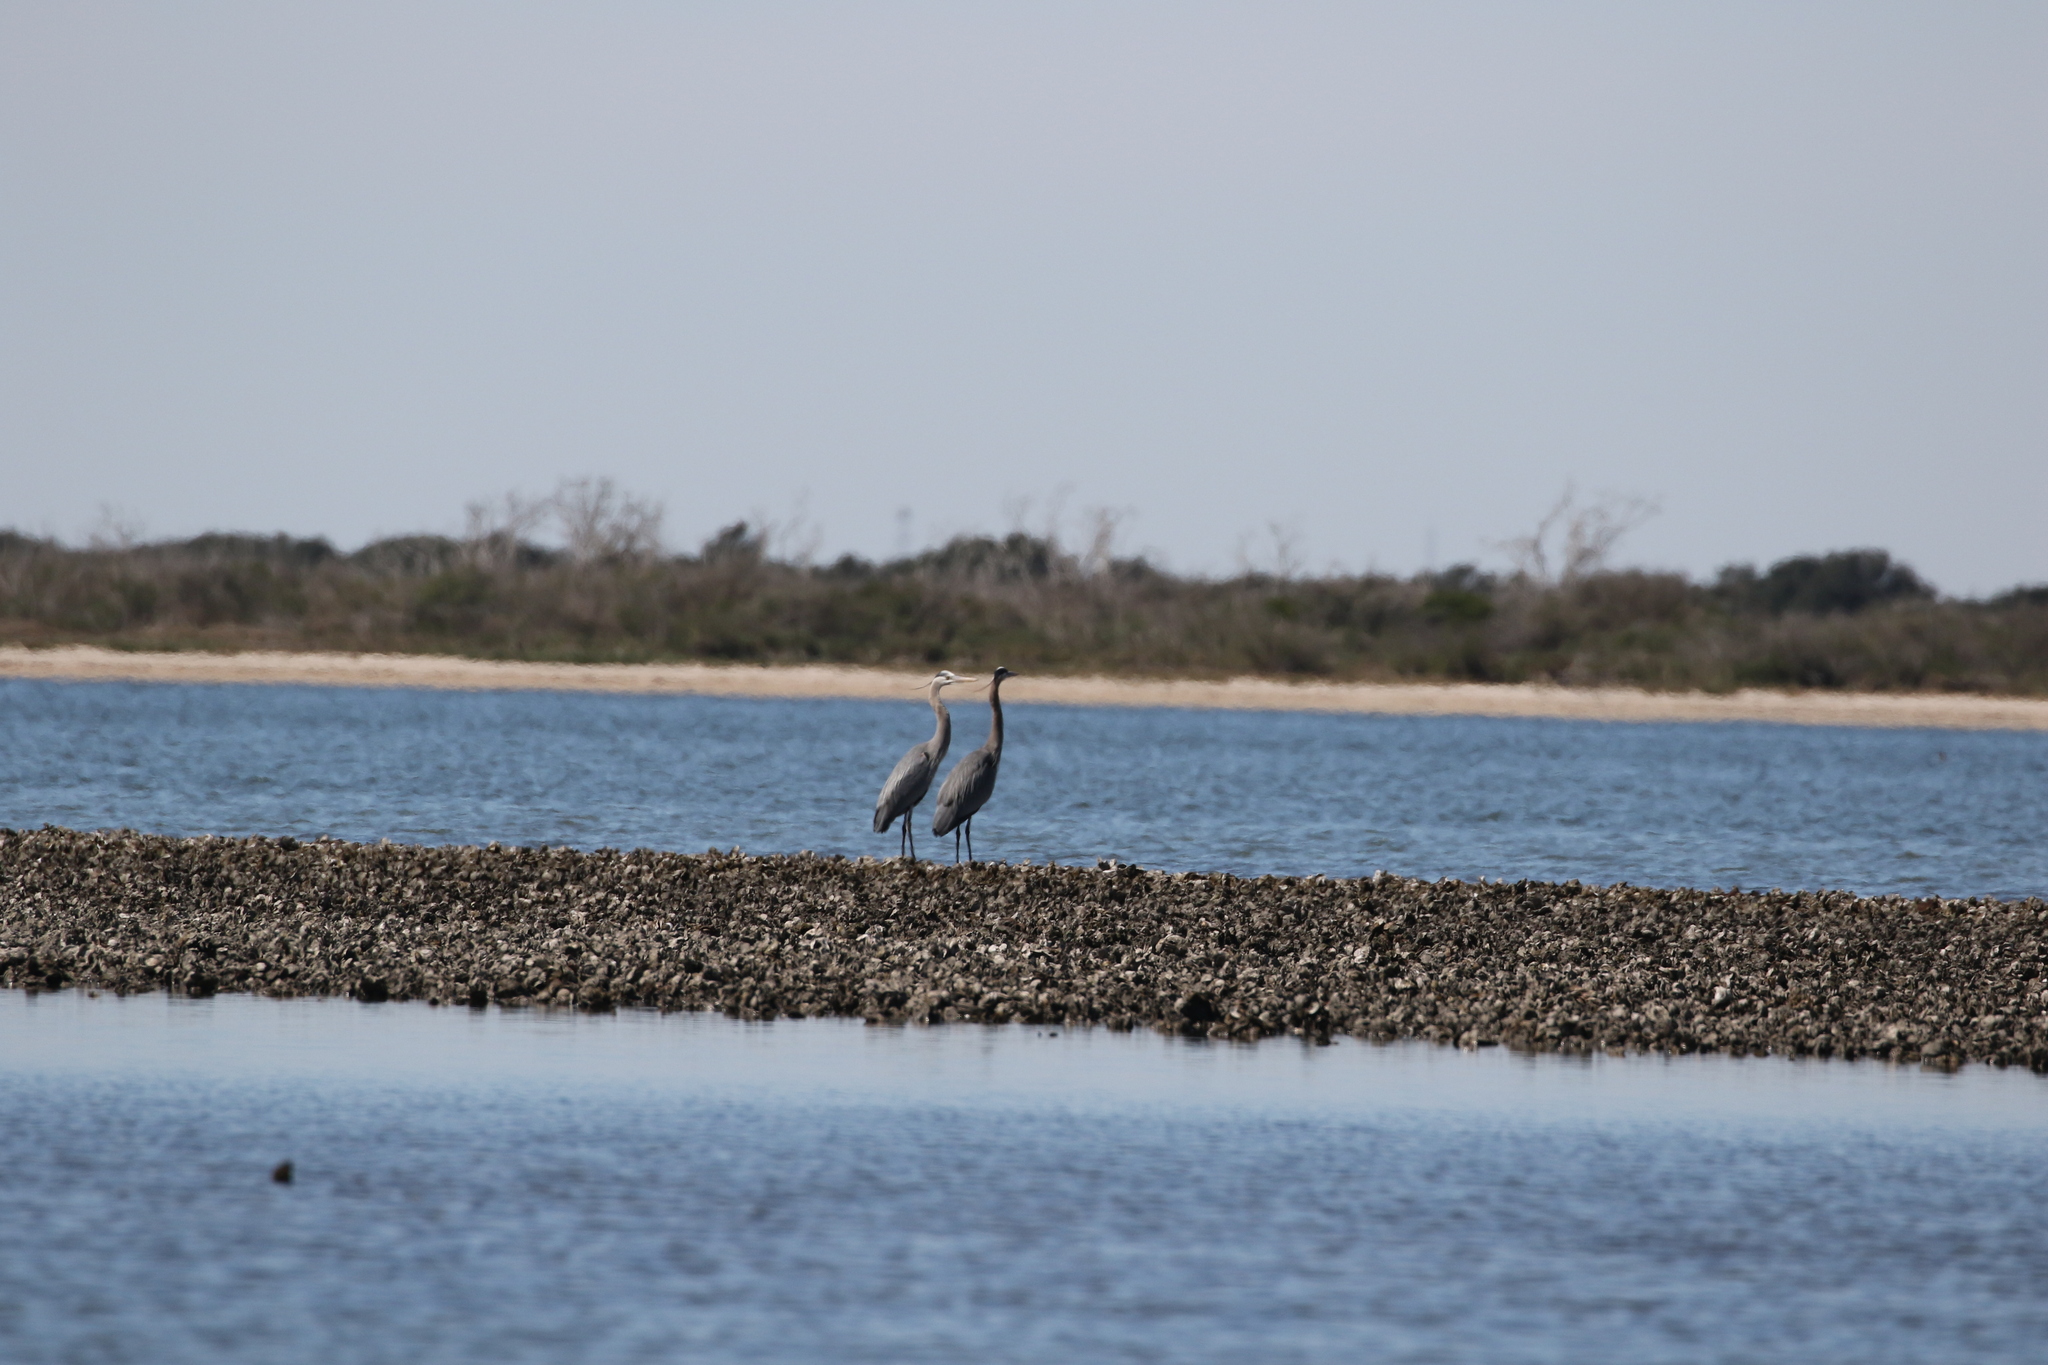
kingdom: Animalia
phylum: Chordata
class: Aves
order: Pelecaniformes
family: Ardeidae
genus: Ardea
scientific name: Ardea herodias
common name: Great blue heron
